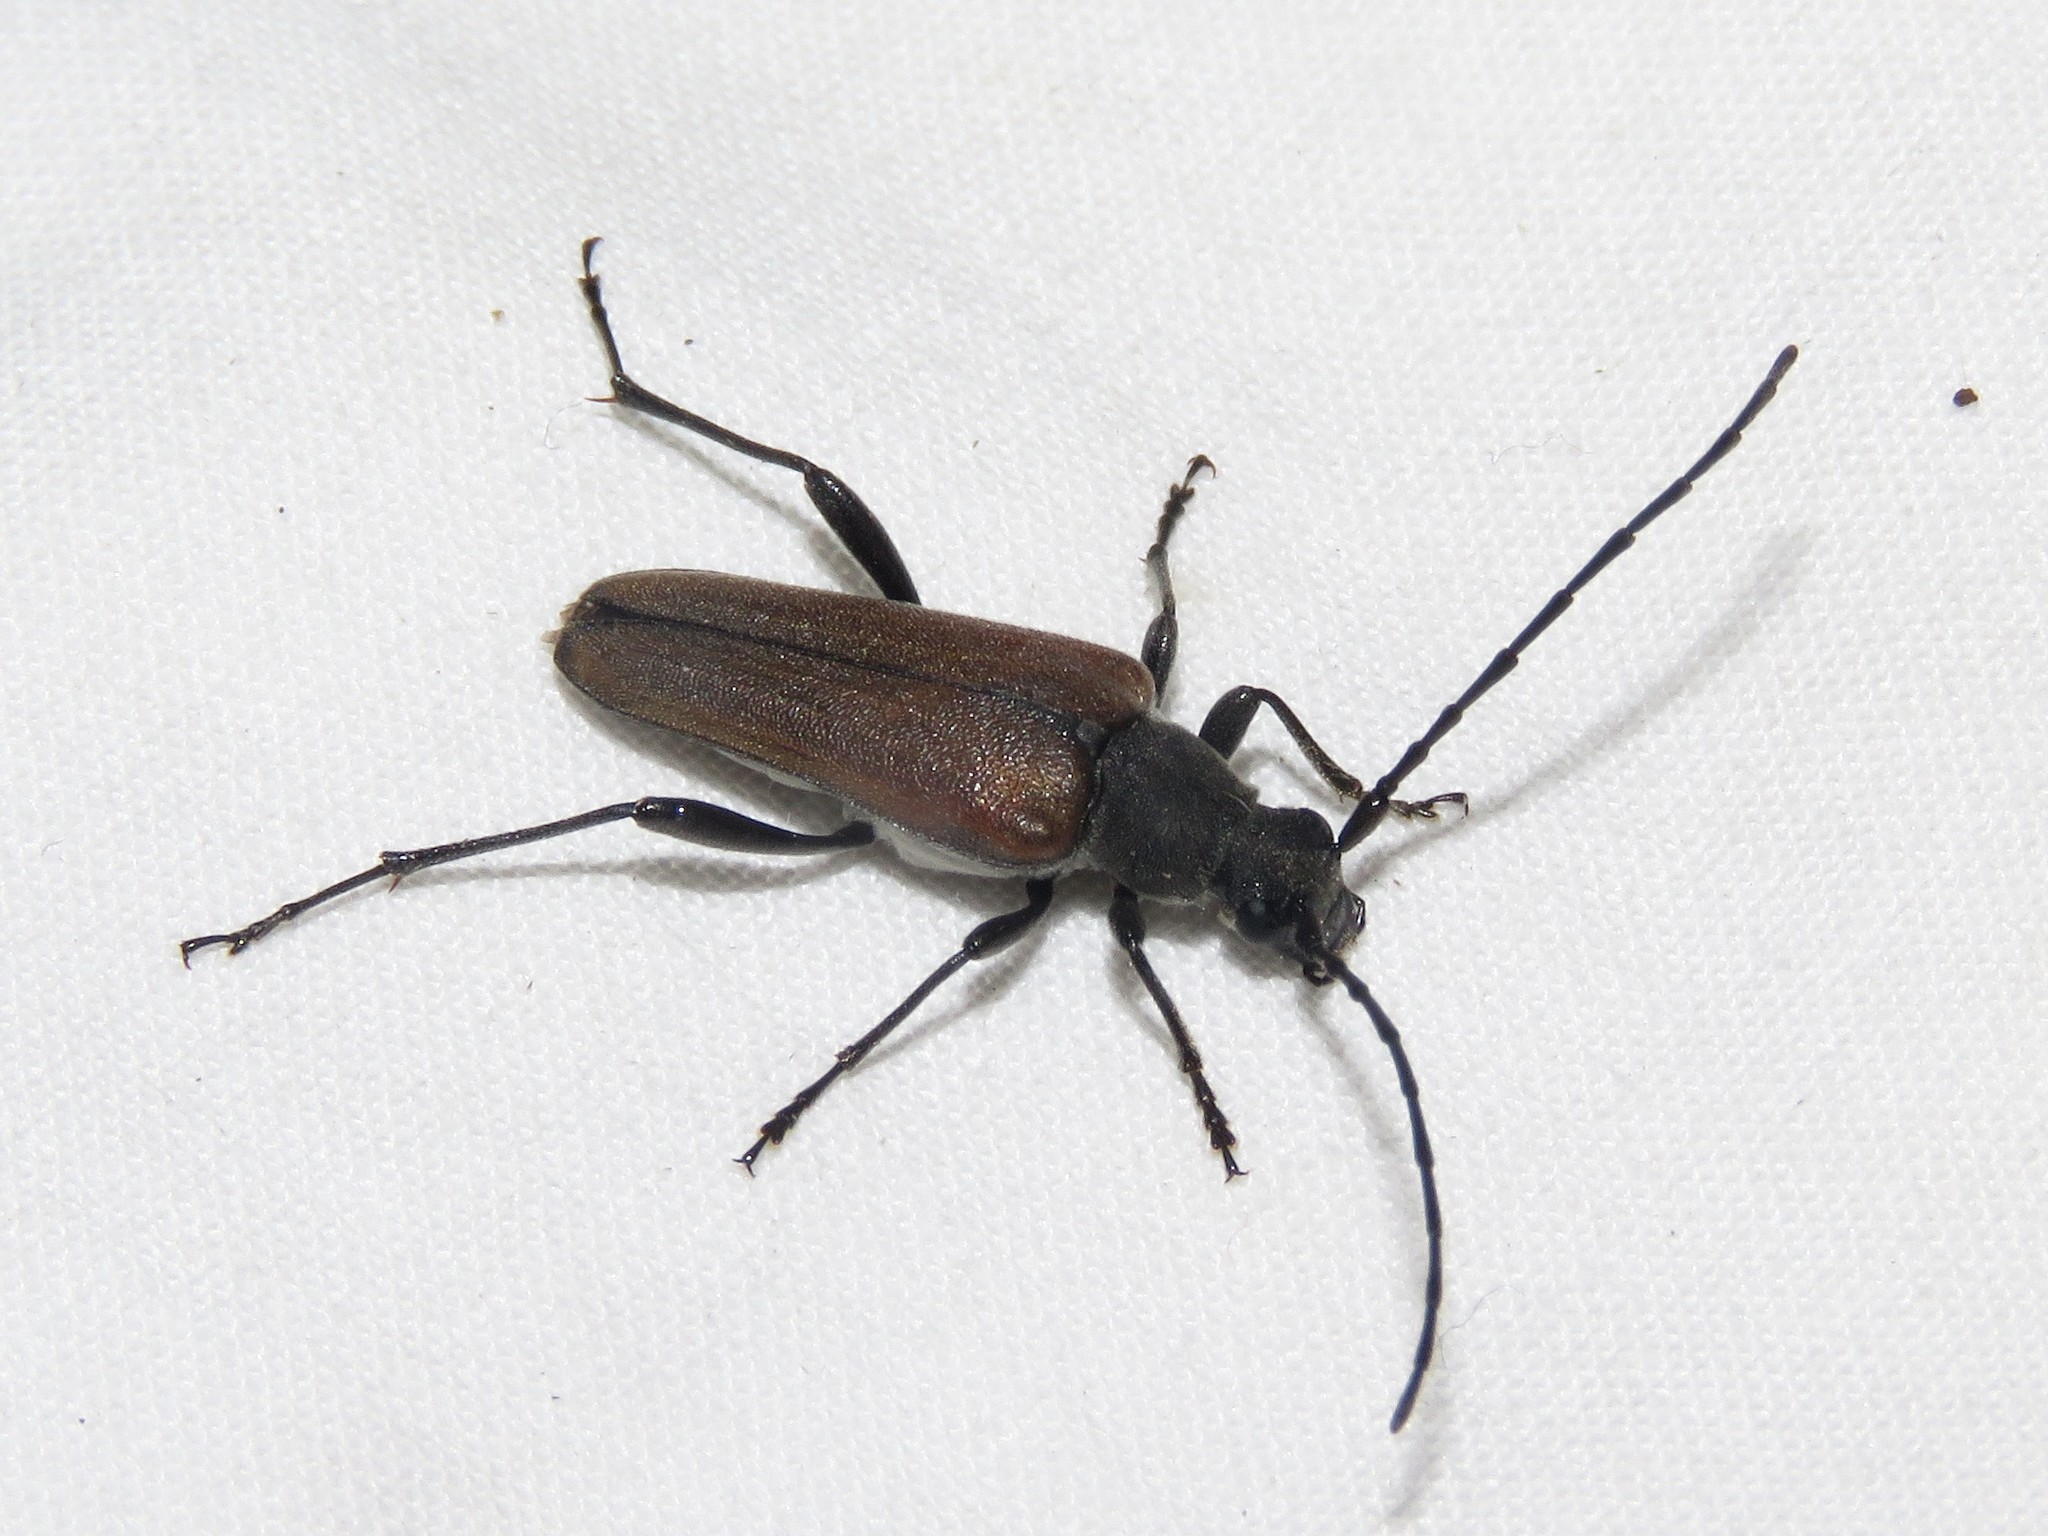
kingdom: Animalia
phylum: Arthropoda
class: Insecta
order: Coleoptera
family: Cerambycidae
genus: Trachysida
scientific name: Trachysida mutabilis
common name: Changeable flower longhorn
